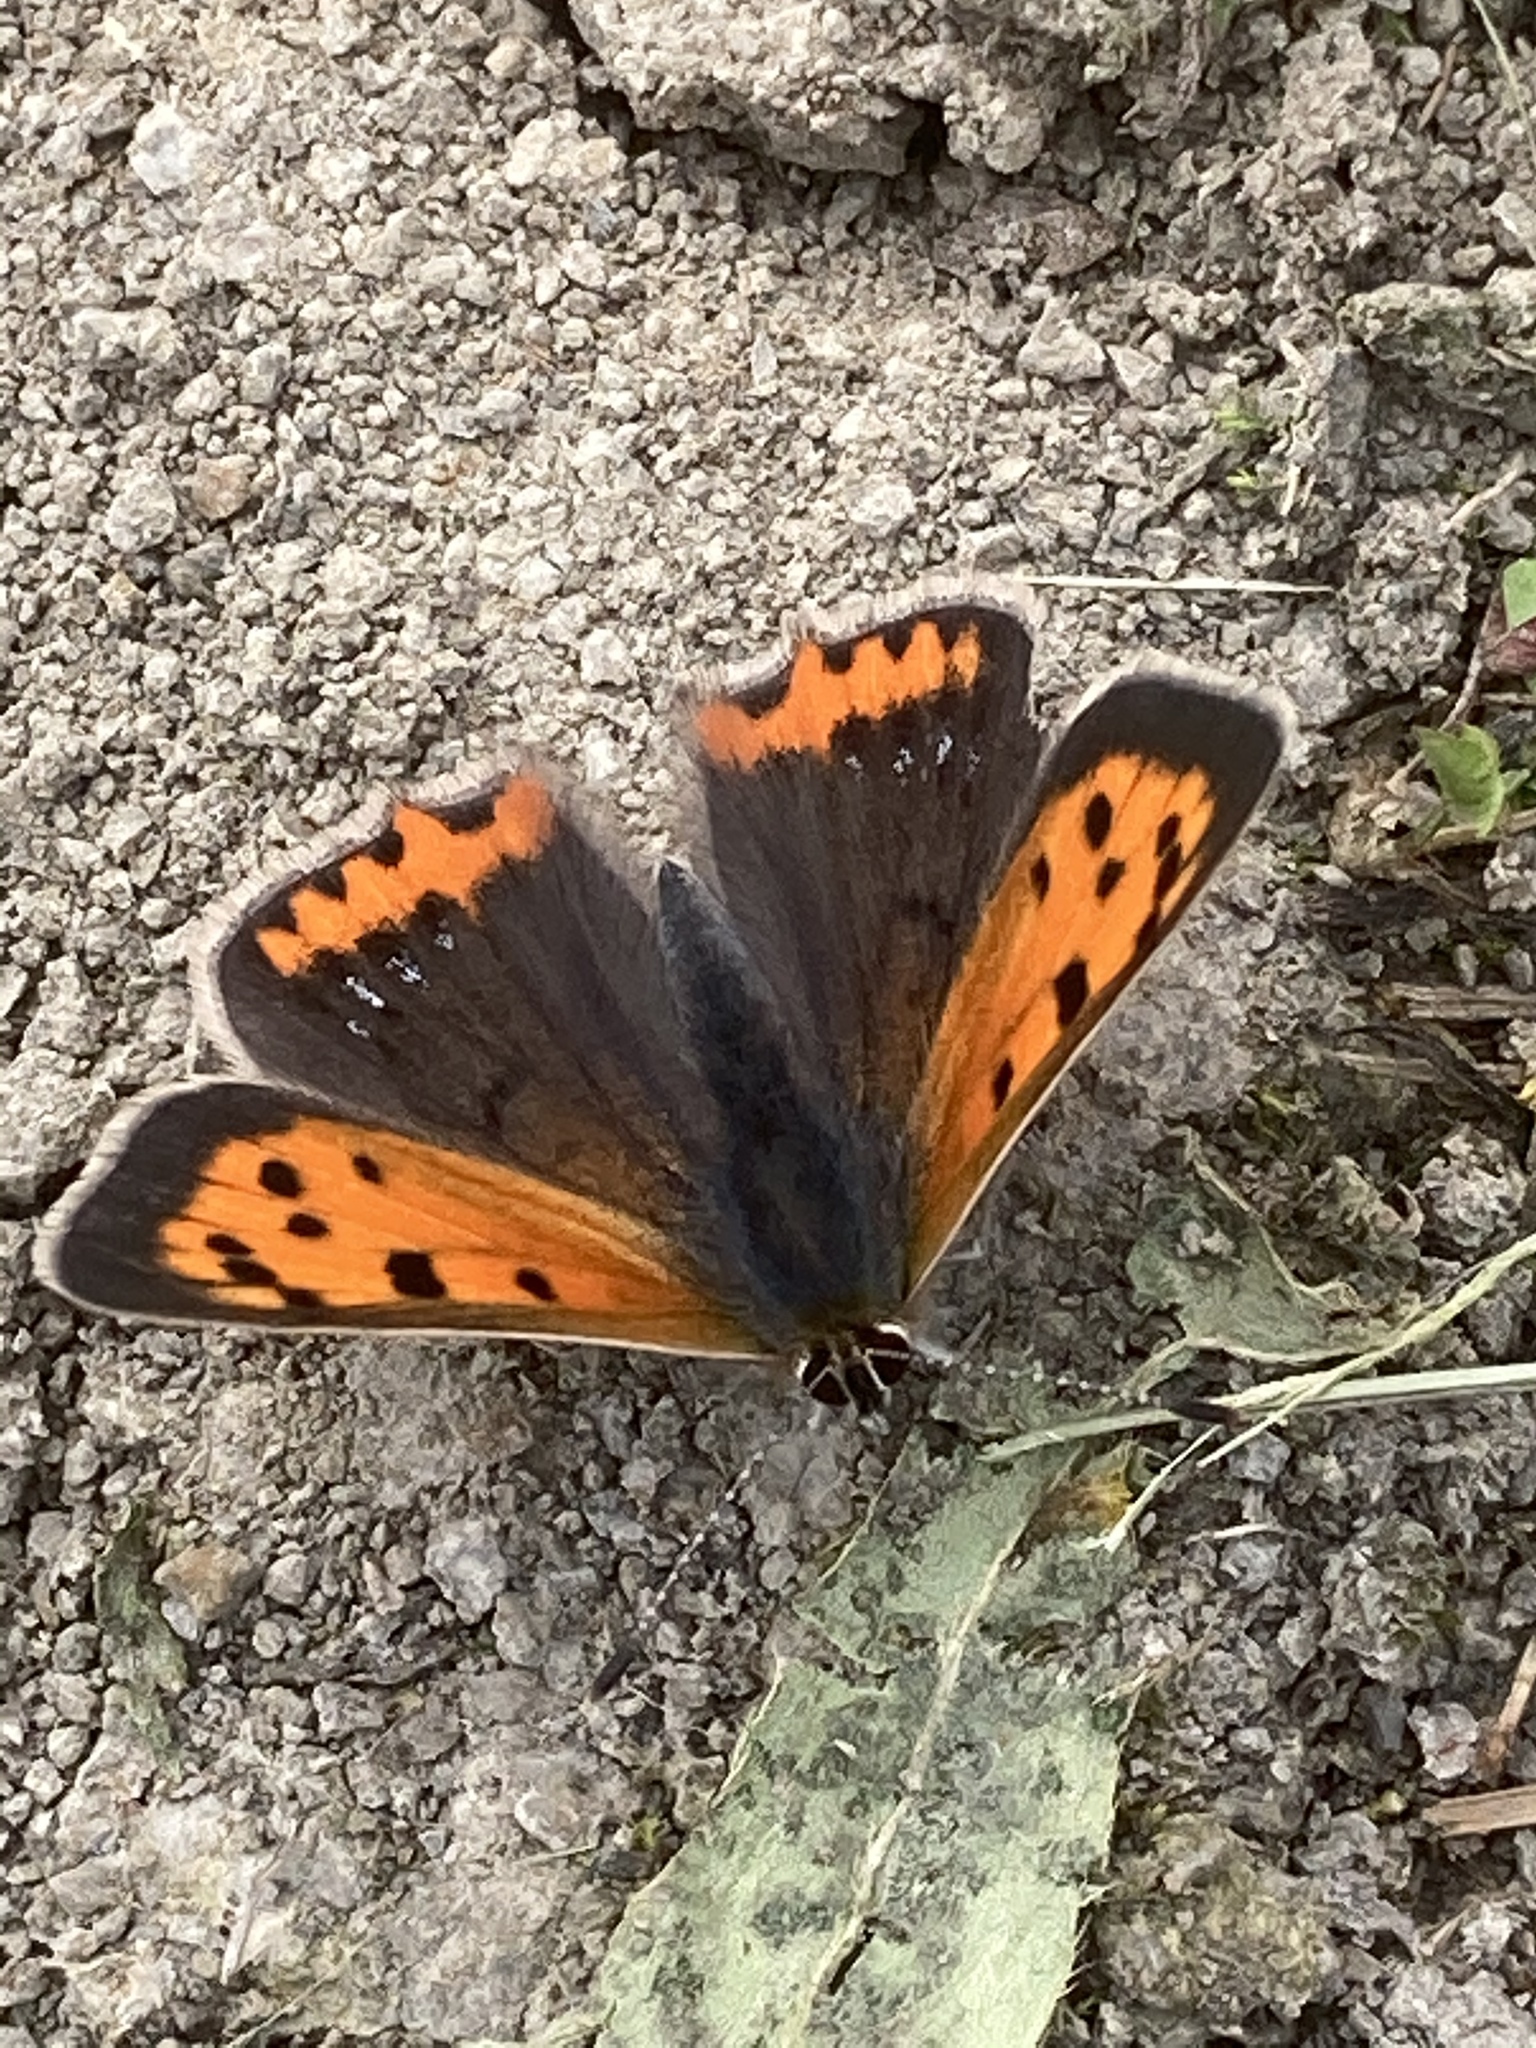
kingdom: Animalia
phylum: Arthropoda
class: Insecta
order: Lepidoptera
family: Lycaenidae
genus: Lycaena
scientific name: Lycaena phlaeas
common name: Small copper
